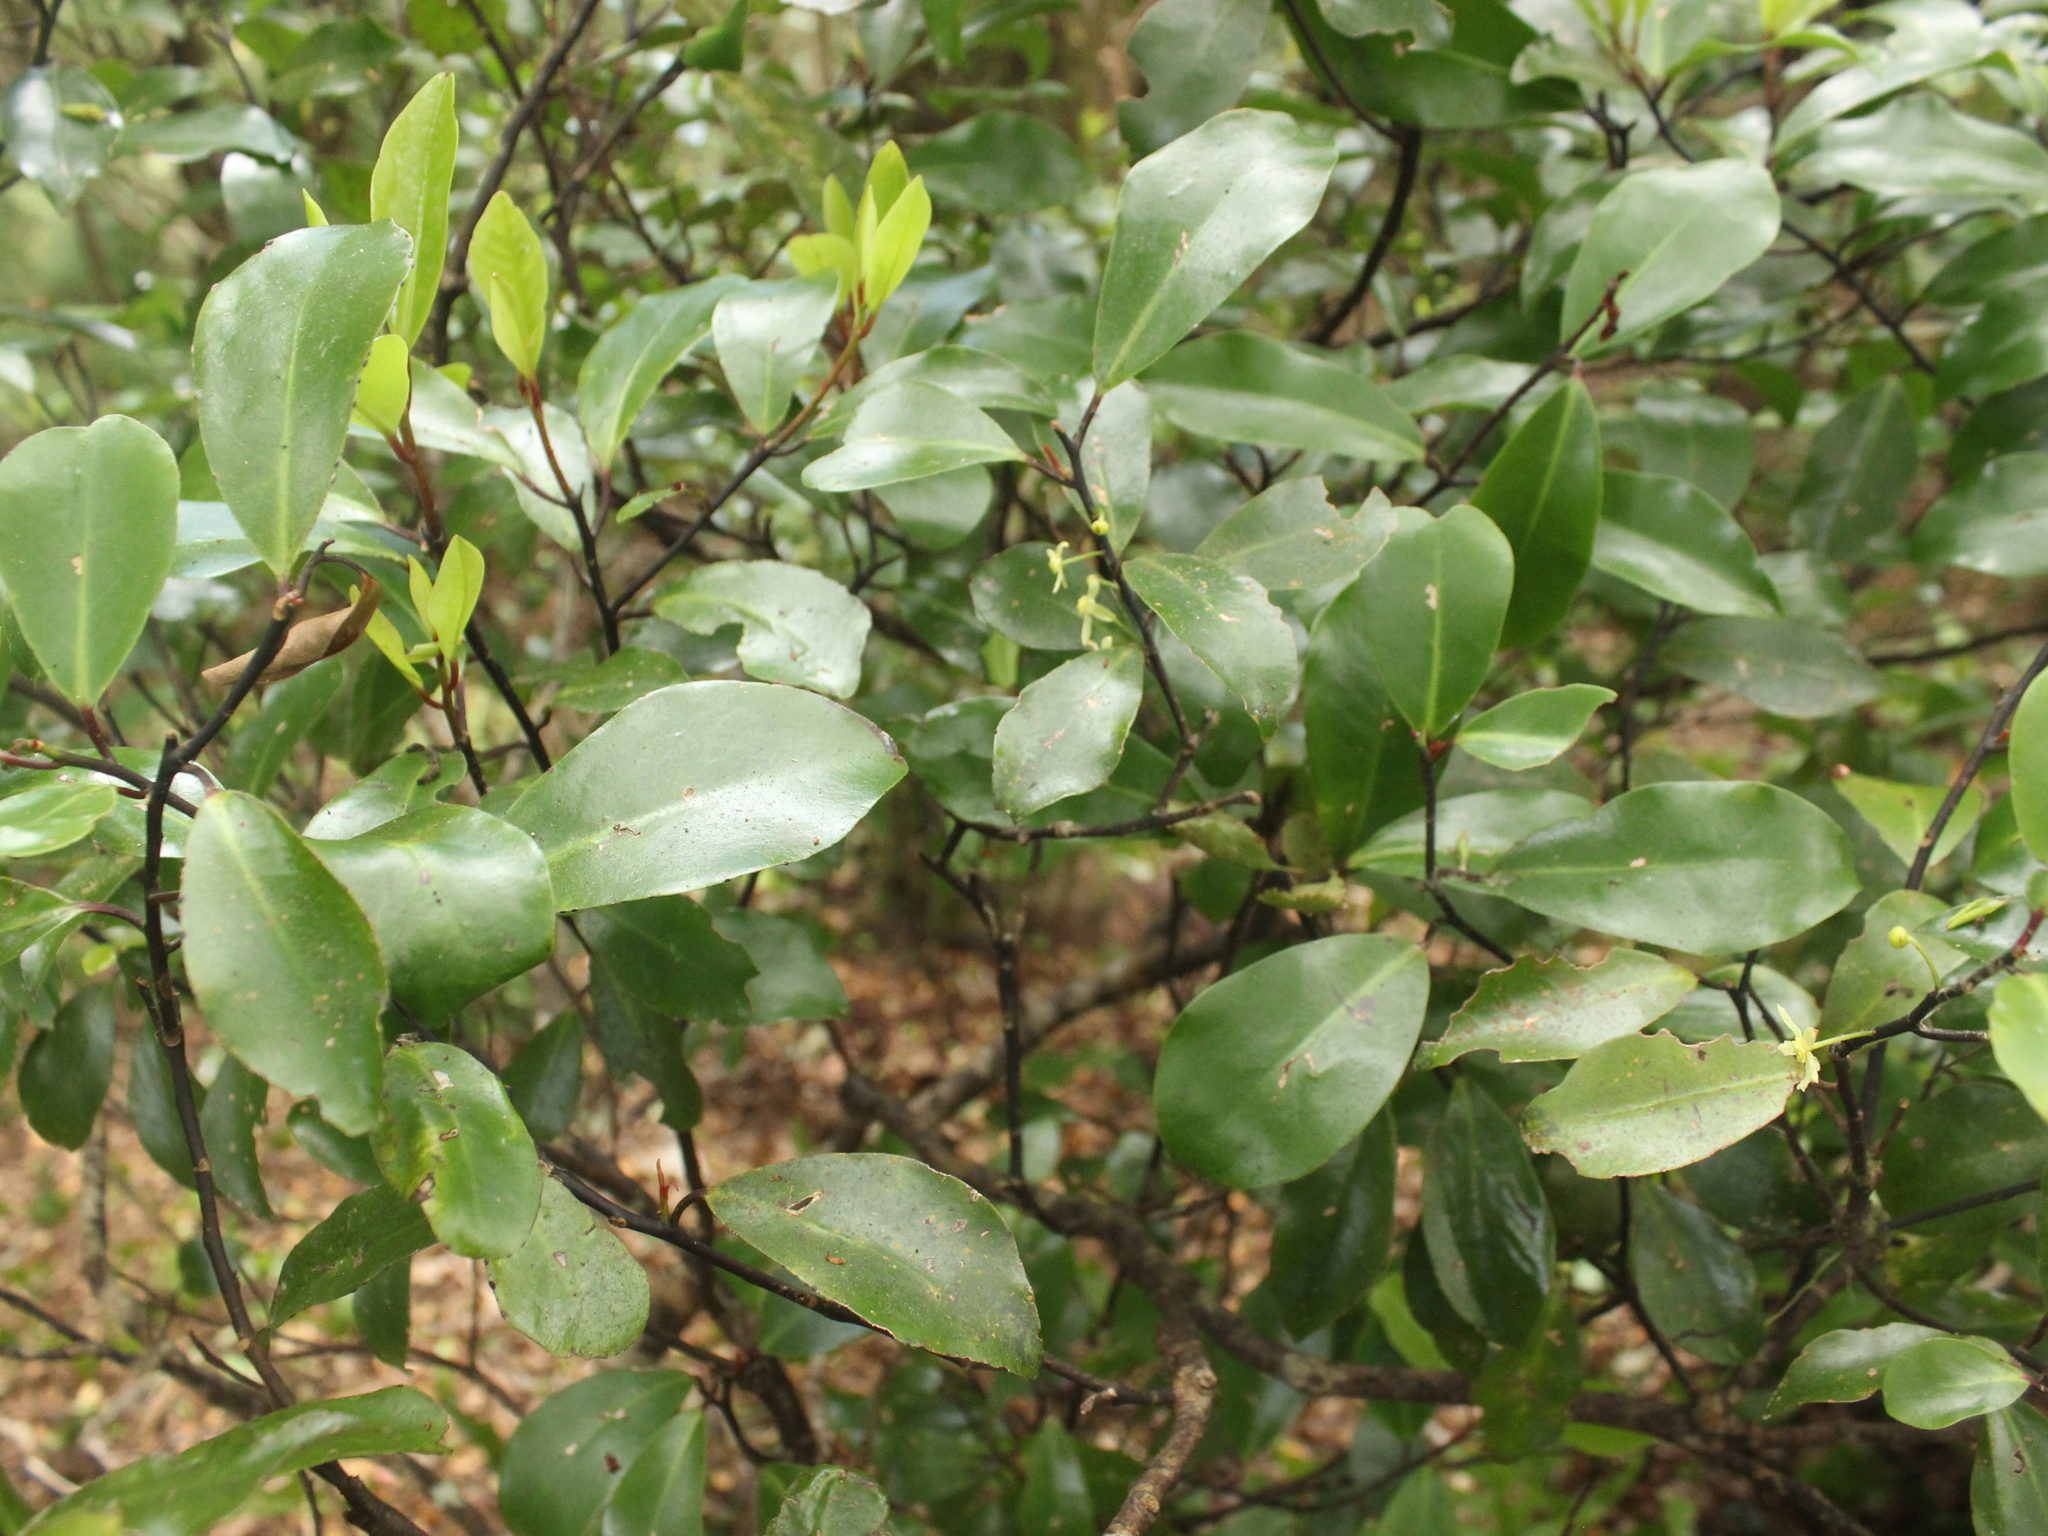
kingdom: Plantae
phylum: Tracheophyta
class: Magnoliopsida
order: Canellales
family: Winteraceae
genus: Pseudowintera
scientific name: Pseudowintera axillaris
